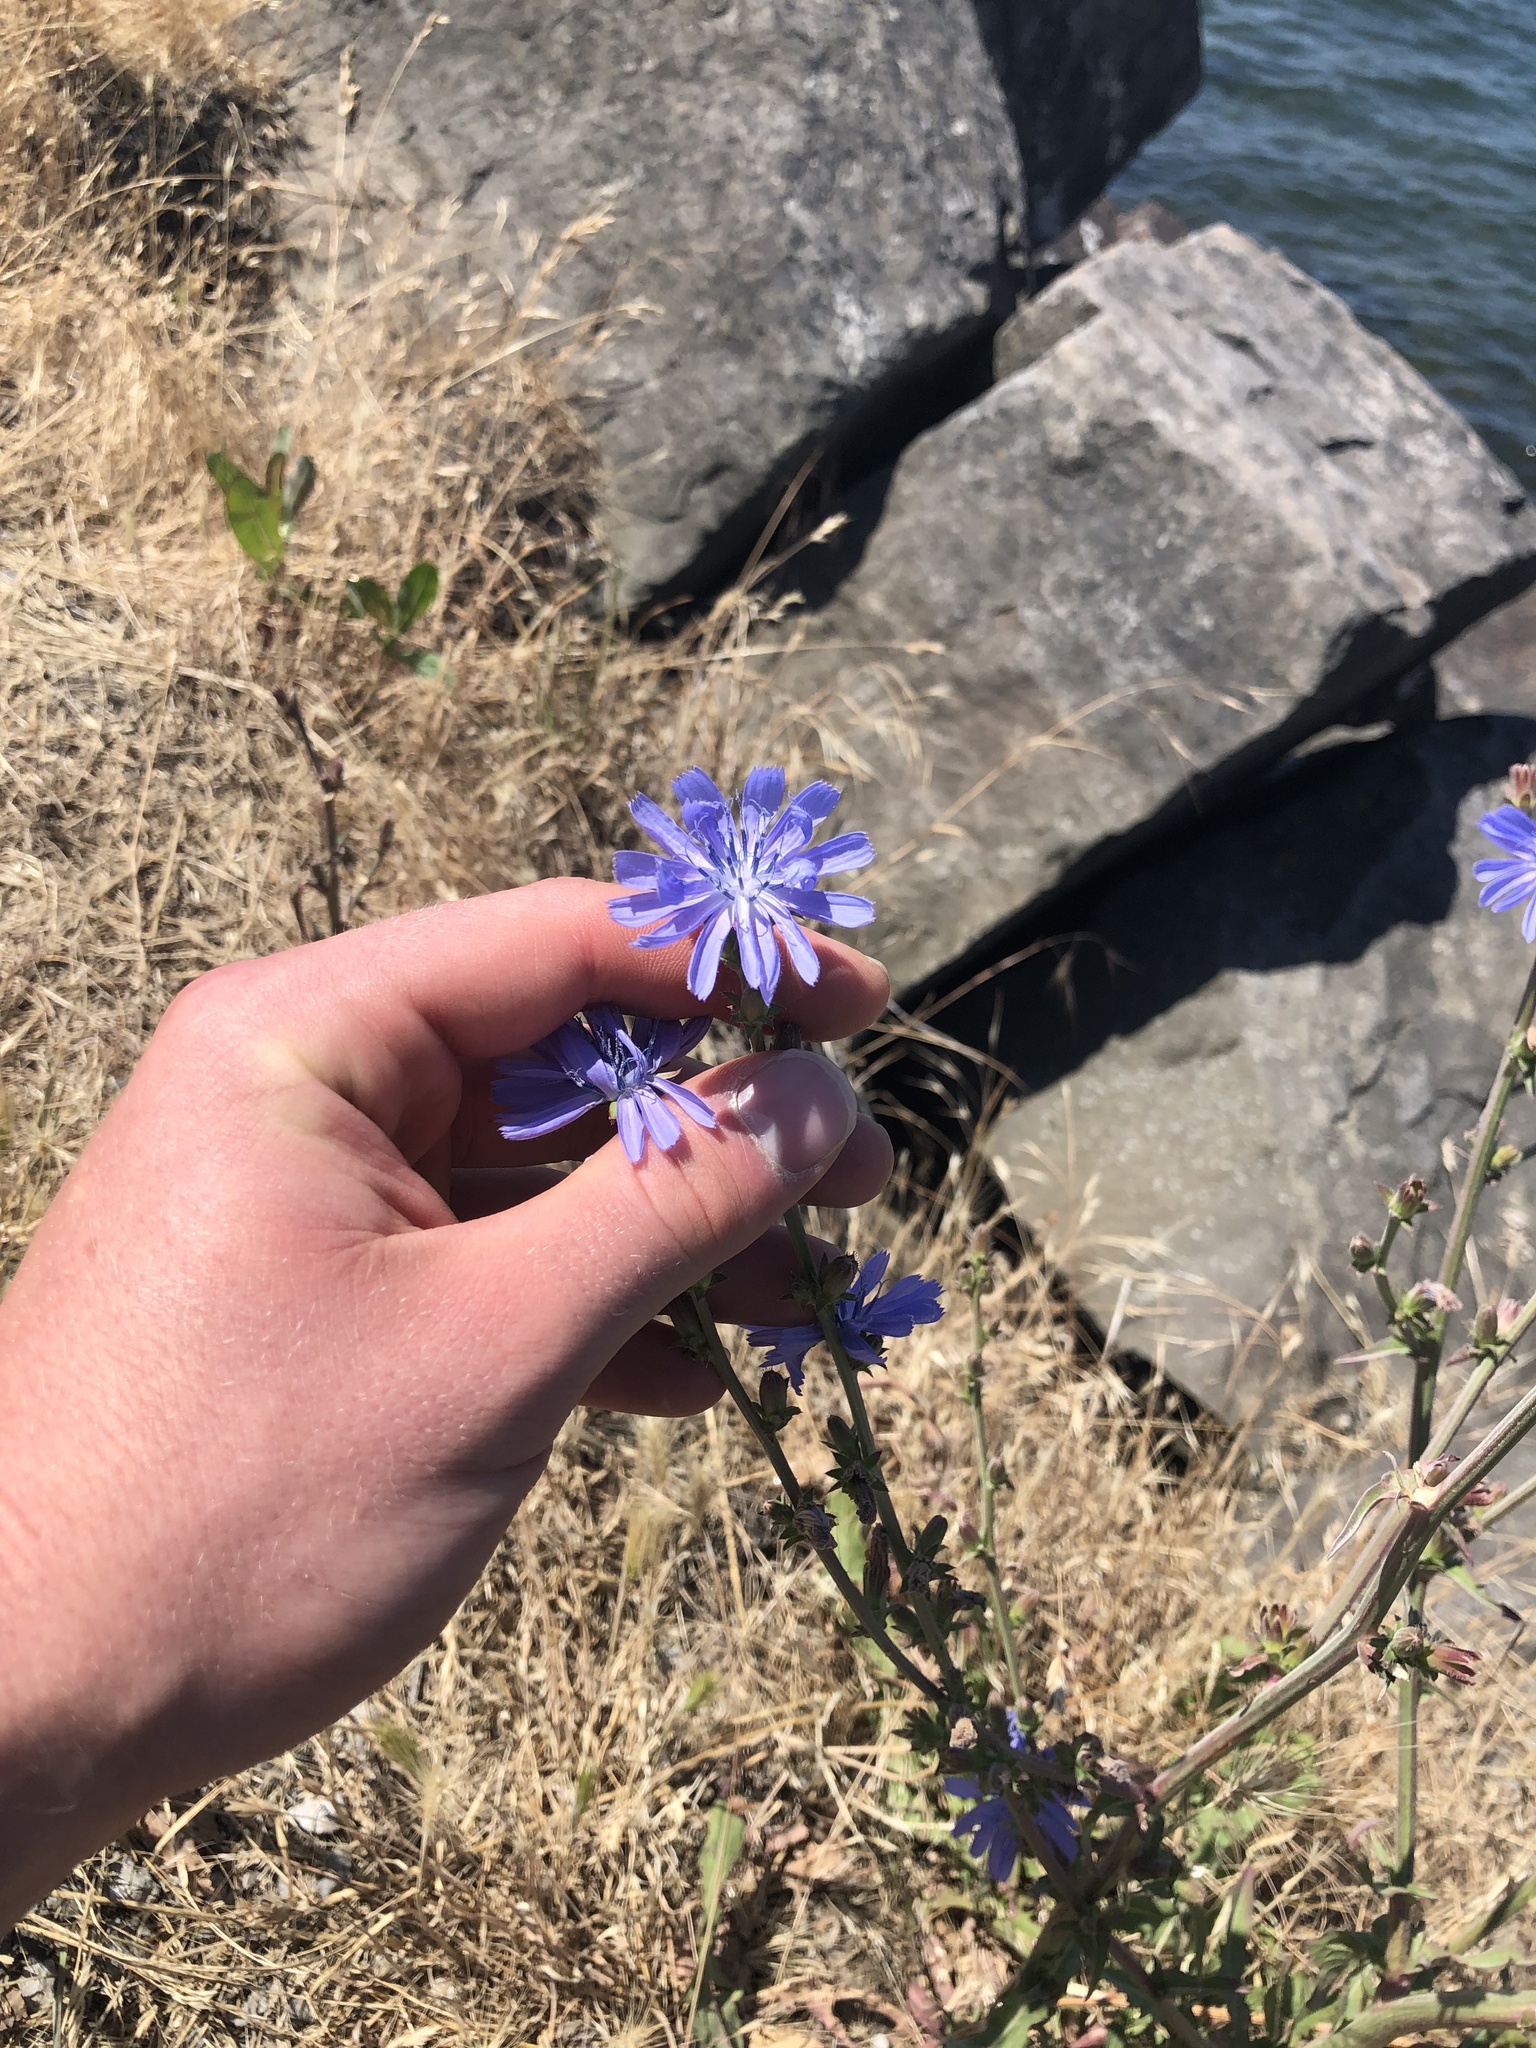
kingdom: Plantae
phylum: Tracheophyta
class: Magnoliopsida
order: Asterales
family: Asteraceae
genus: Cichorium
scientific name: Cichorium intybus
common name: Chicory
